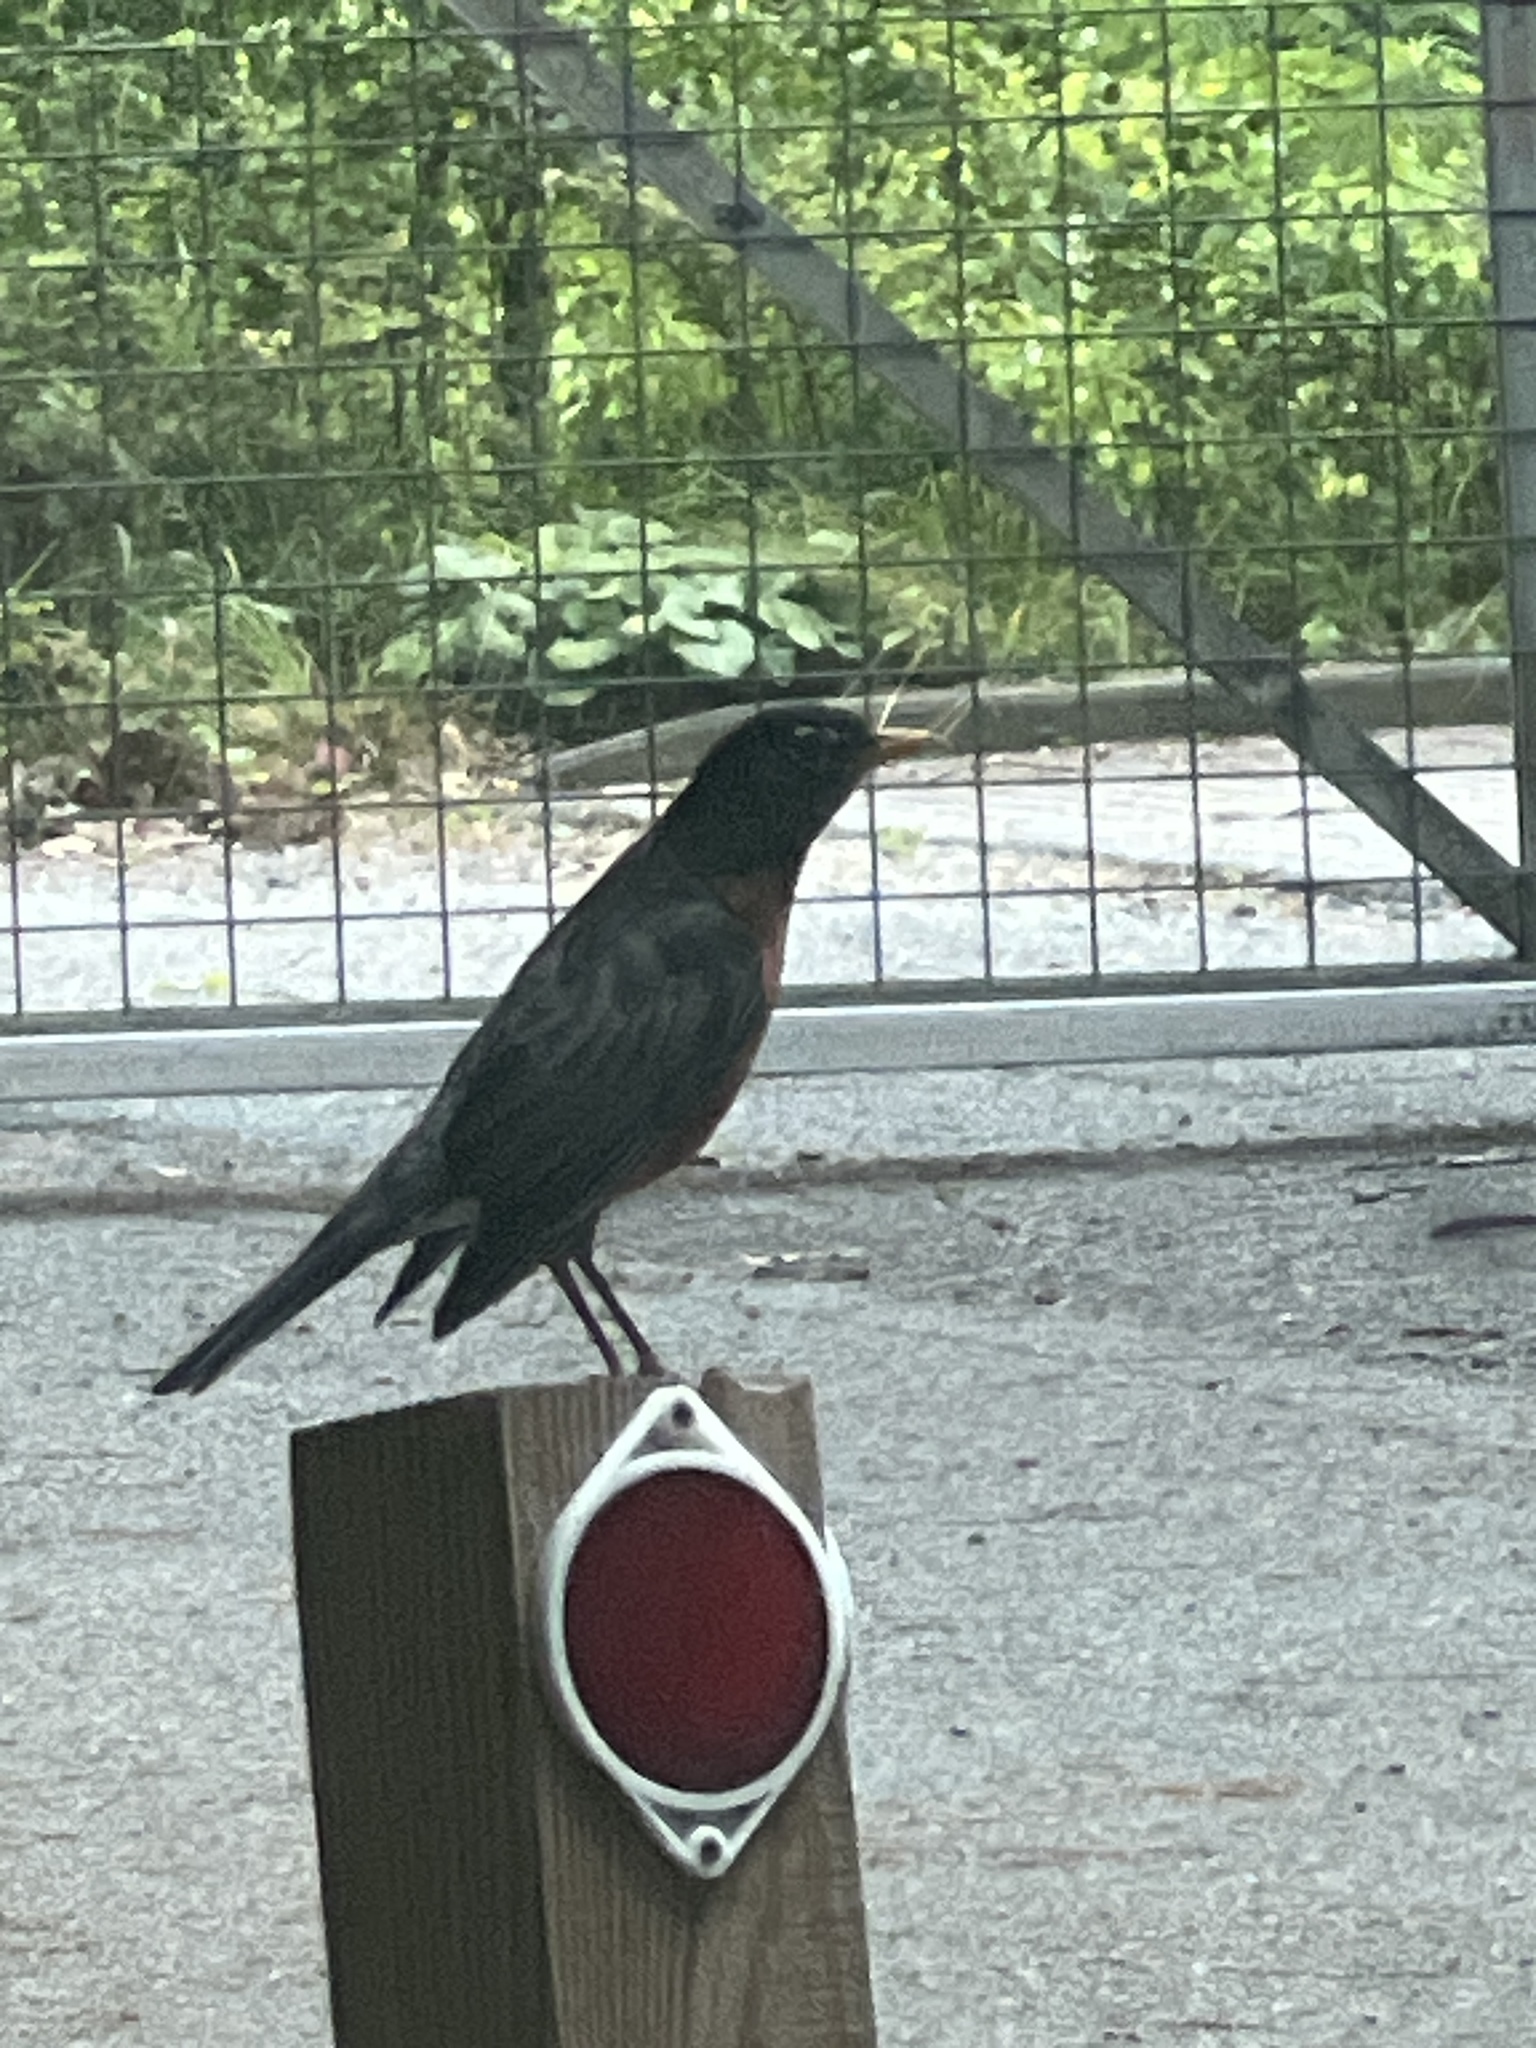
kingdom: Animalia
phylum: Chordata
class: Aves
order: Passeriformes
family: Turdidae
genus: Turdus
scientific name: Turdus migratorius
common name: American robin
